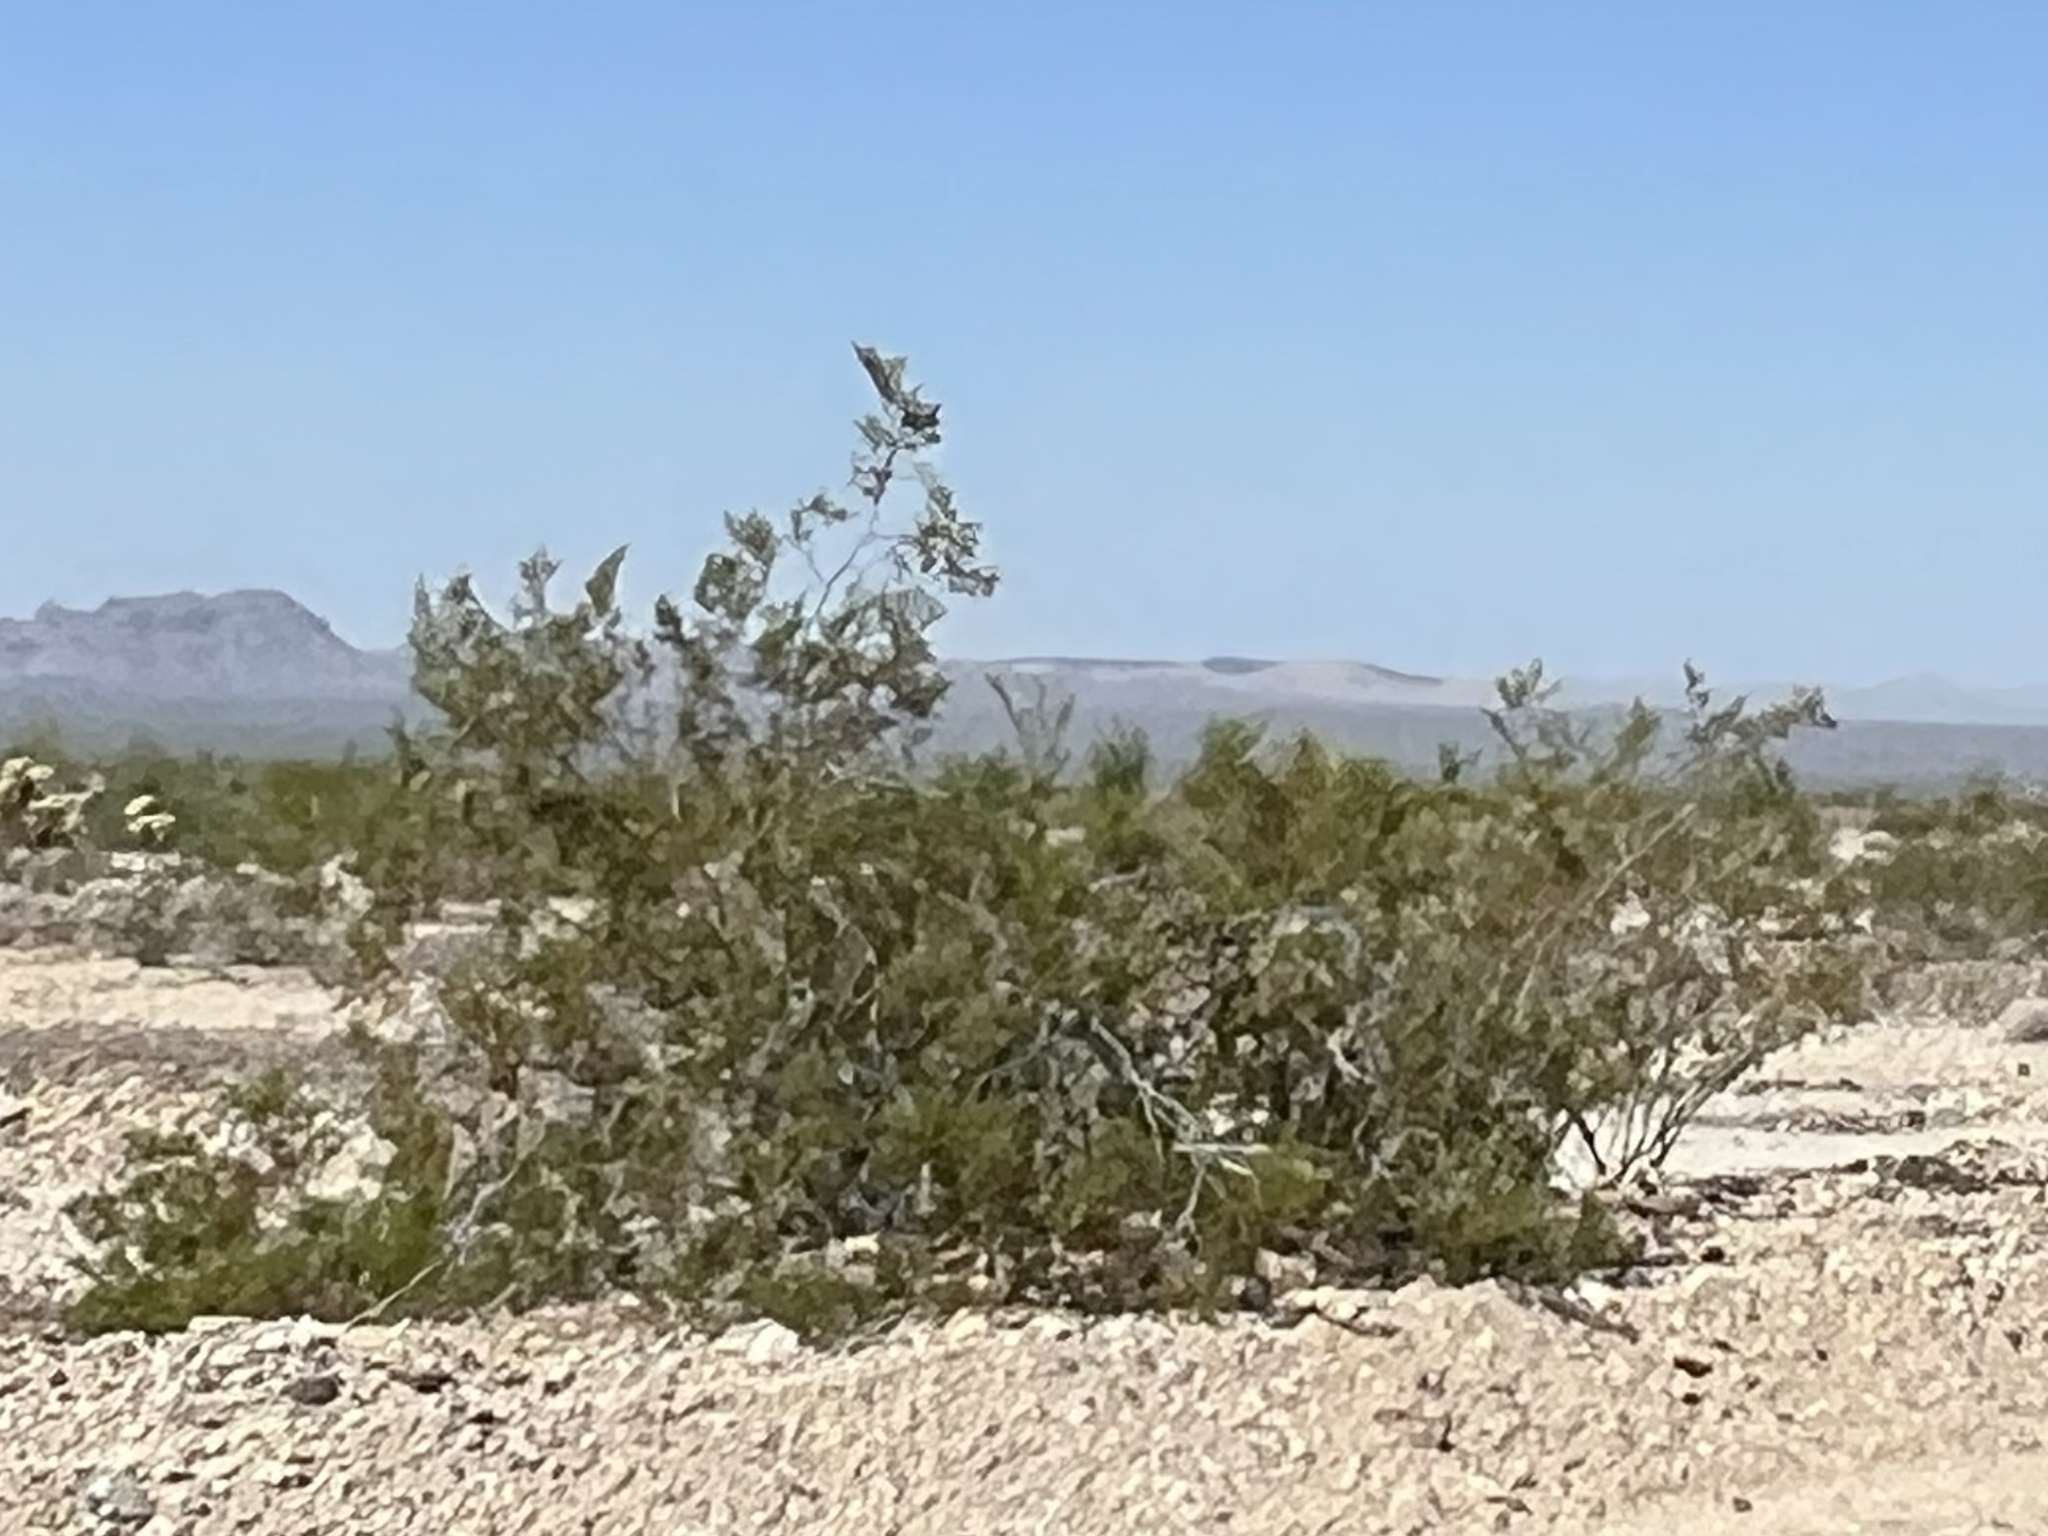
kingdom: Plantae
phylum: Tracheophyta
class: Magnoliopsida
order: Zygophyllales
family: Zygophyllaceae
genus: Larrea
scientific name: Larrea tridentata
